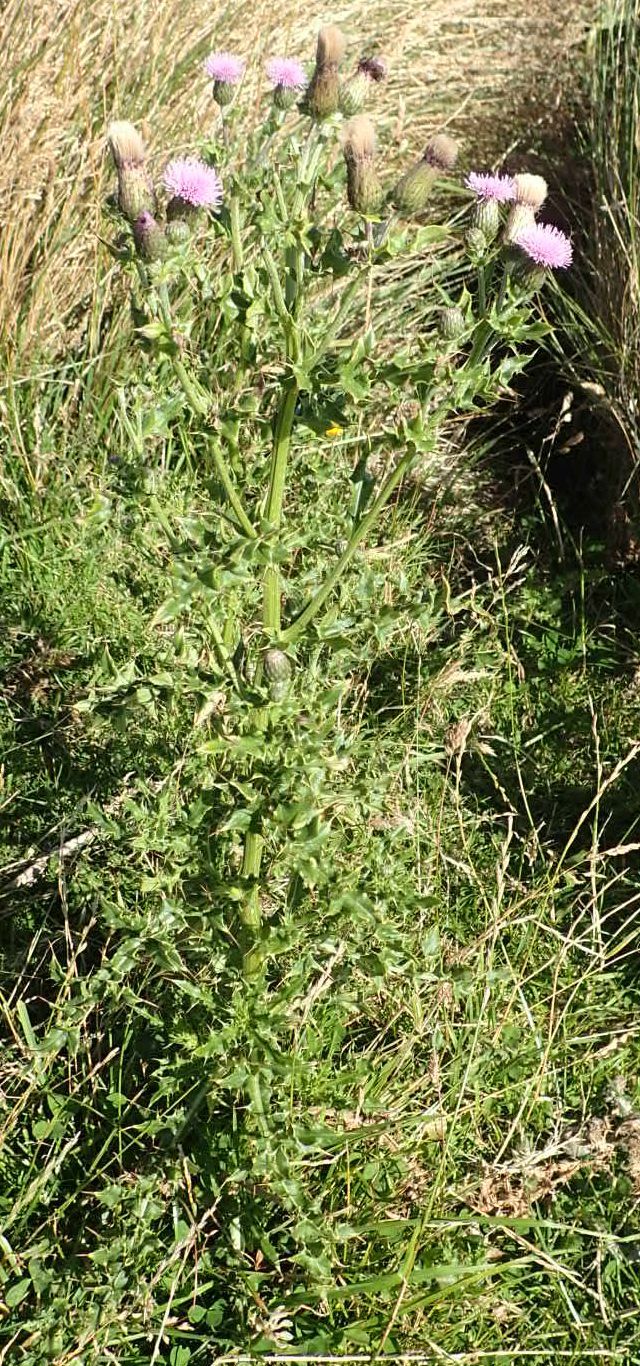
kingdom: Plantae
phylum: Tracheophyta
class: Magnoliopsida
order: Asterales
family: Asteraceae
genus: Cirsium
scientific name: Cirsium arvense
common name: Creeping thistle
